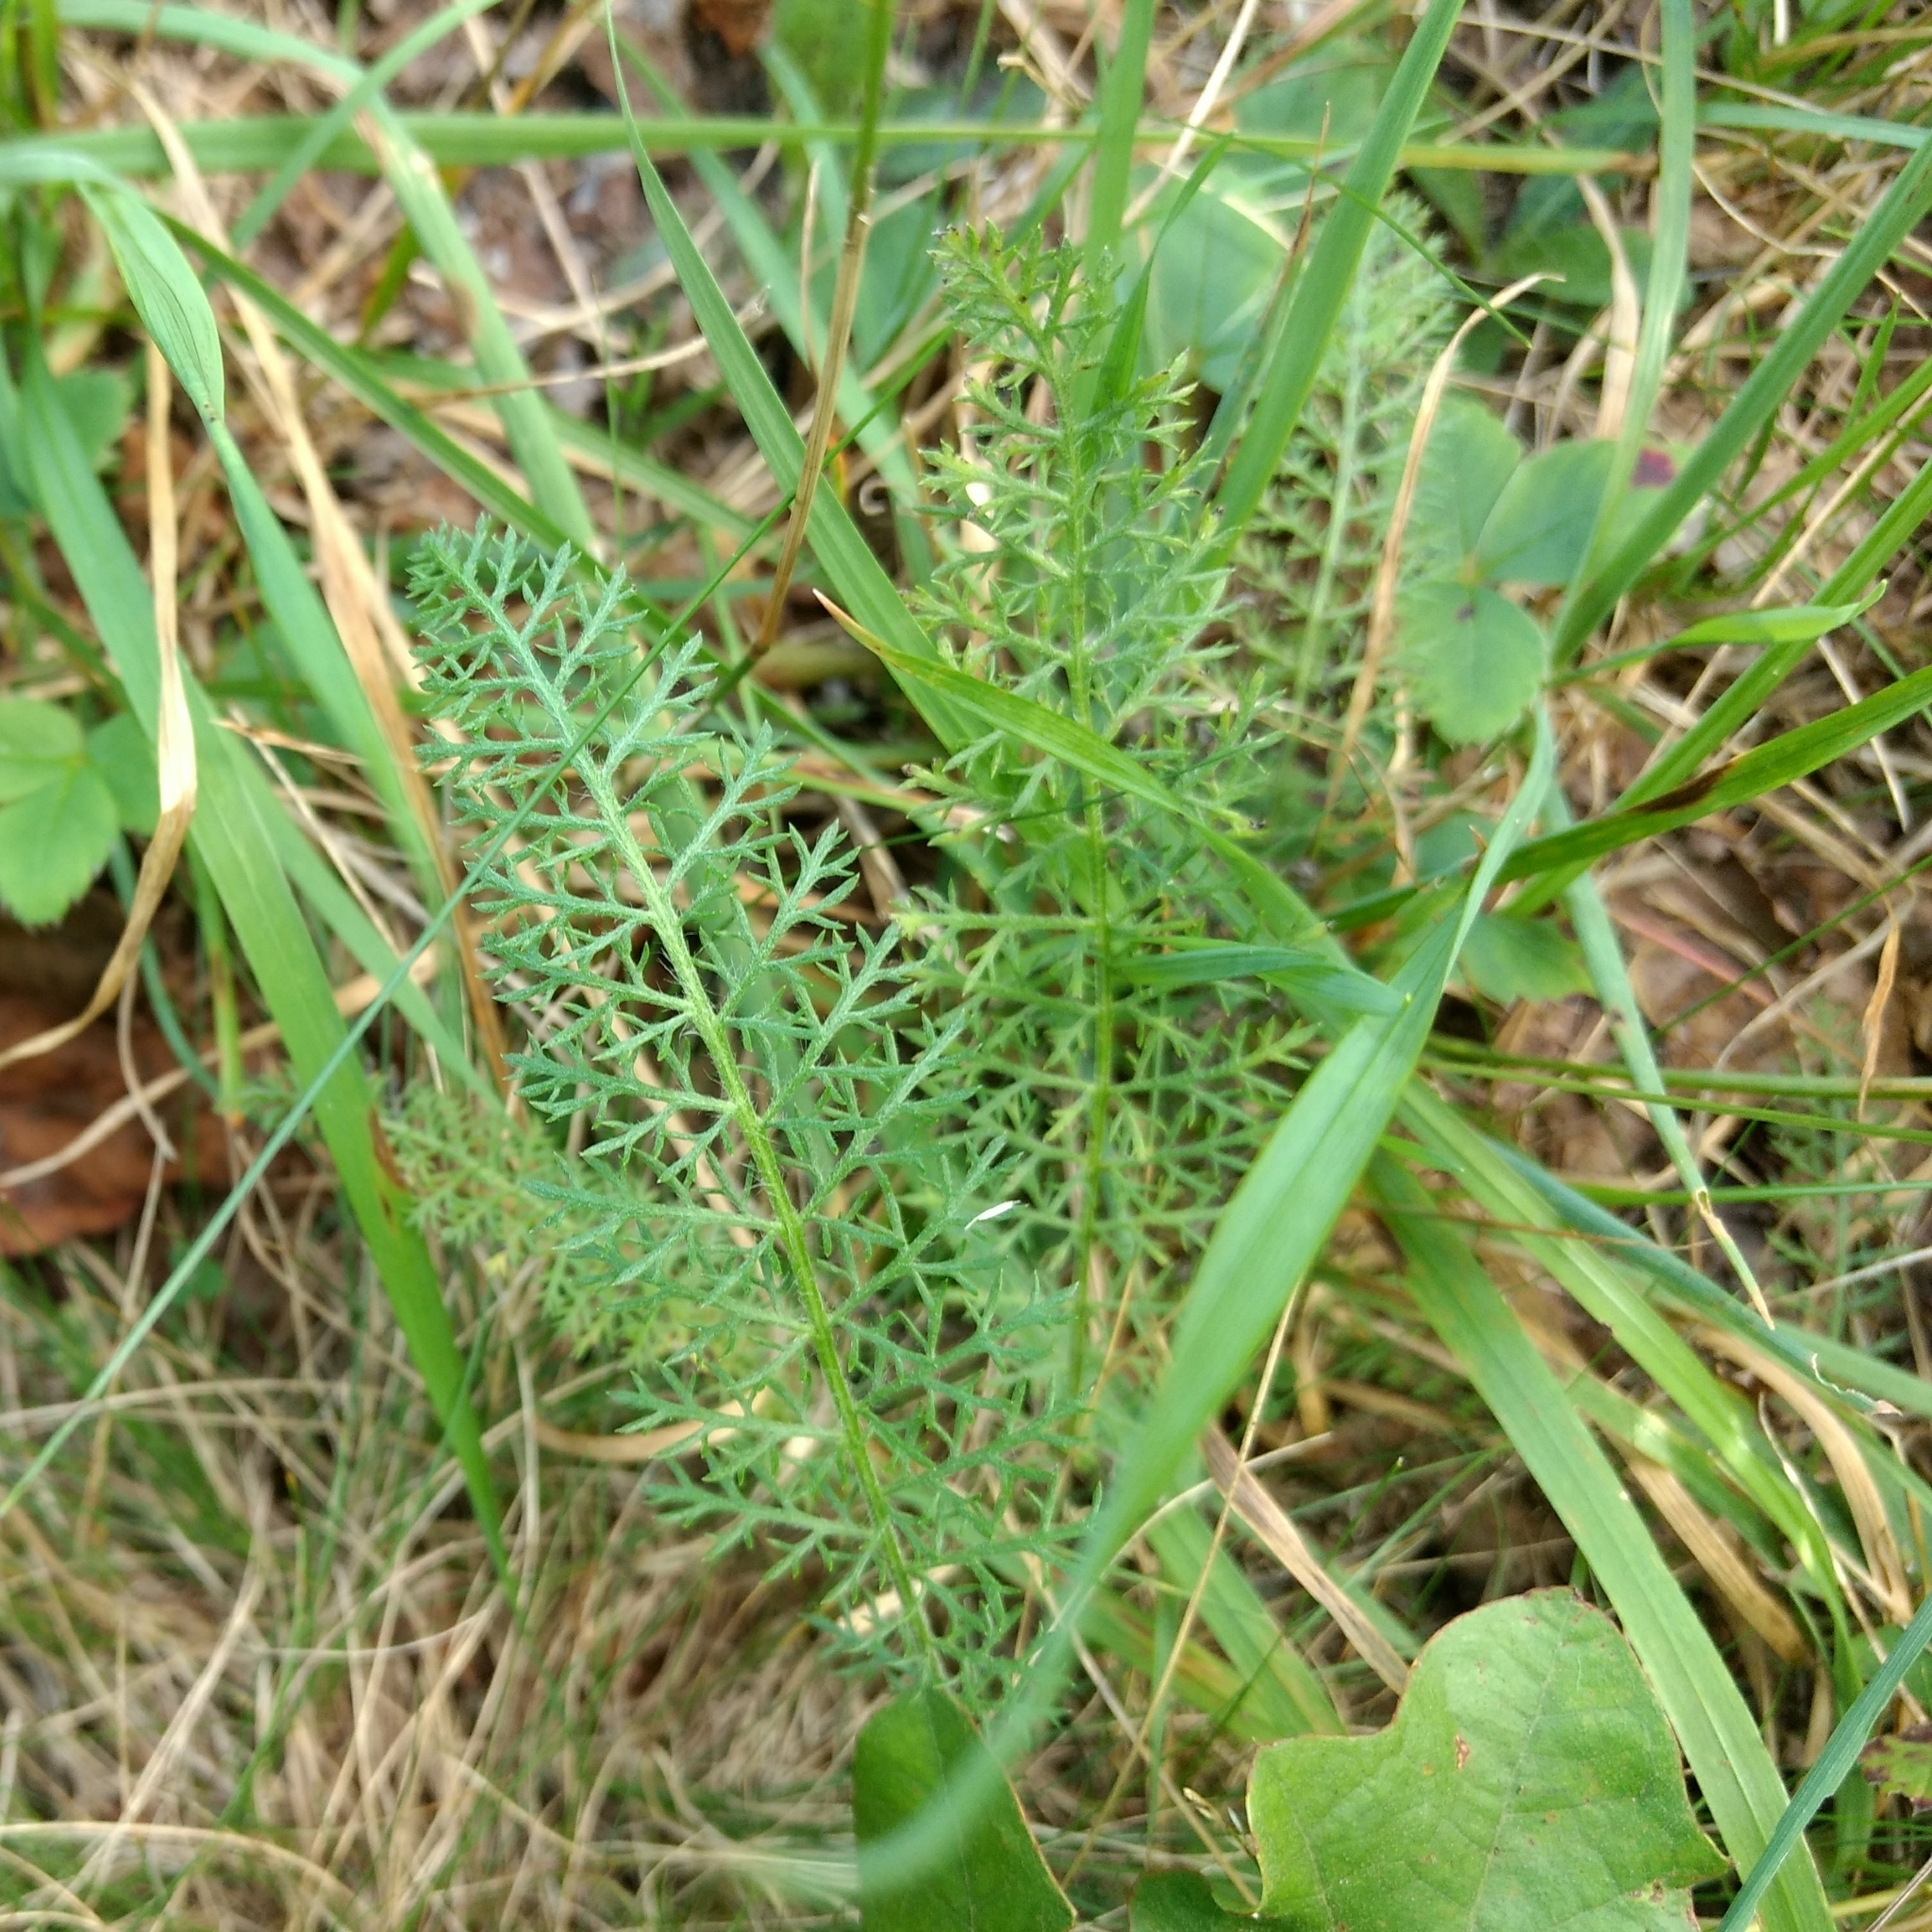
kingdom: Plantae
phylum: Tracheophyta
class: Magnoliopsida
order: Asterales
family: Asteraceae
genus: Achillea
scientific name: Achillea millefolium
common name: Yarrow
